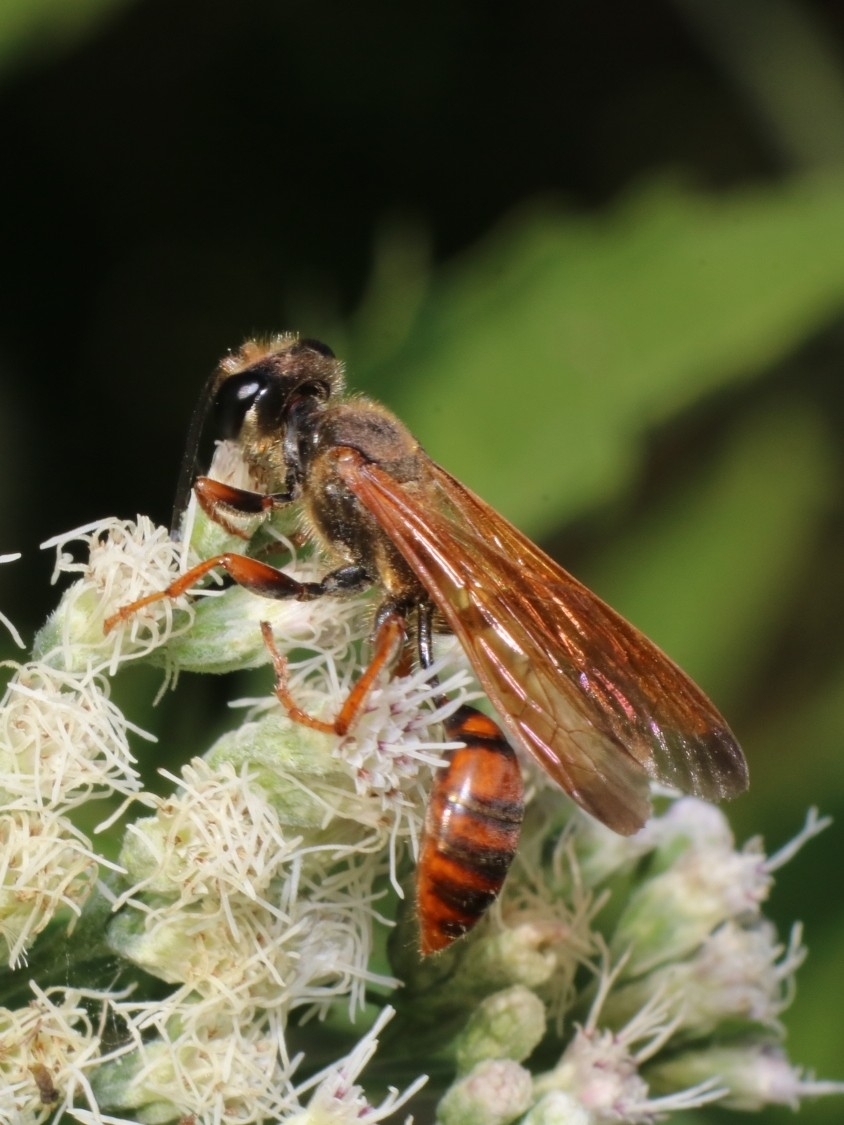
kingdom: Animalia
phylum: Arthropoda
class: Insecta
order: Hymenoptera
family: Sphecidae
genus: Isodontia
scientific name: Isodontia elegans
